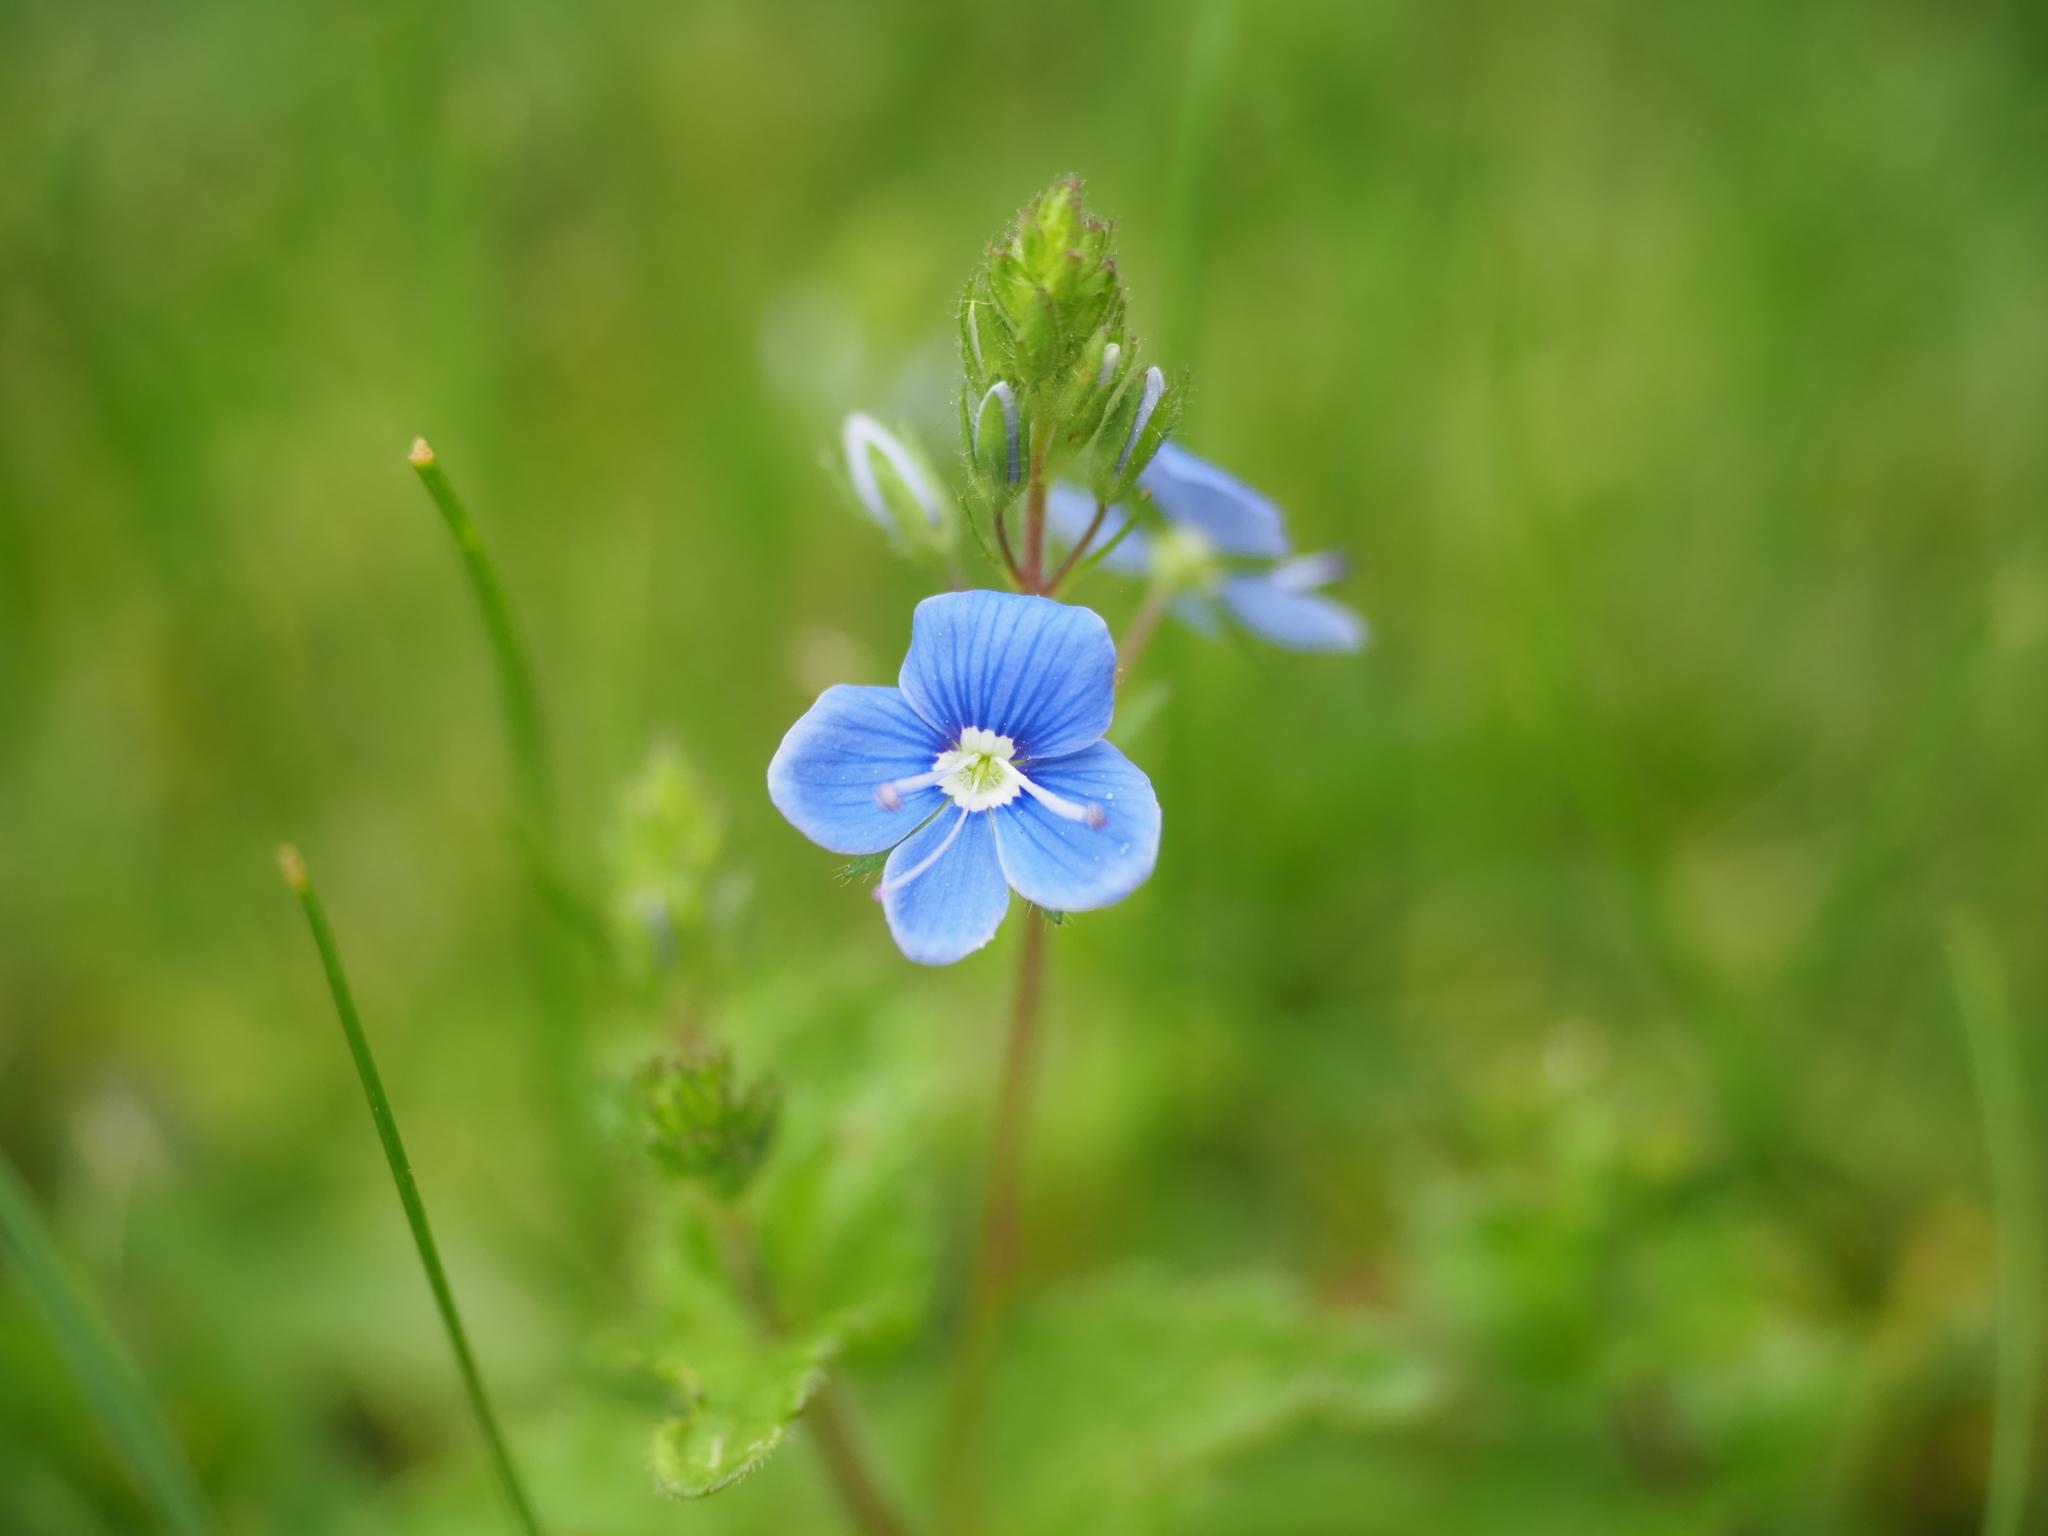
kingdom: Plantae
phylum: Tracheophyta
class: Magnoliopsida
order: Lamiales
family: Plantaginaceae
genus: Veronica
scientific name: Veronica chamaedrys
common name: Germander speedwell
